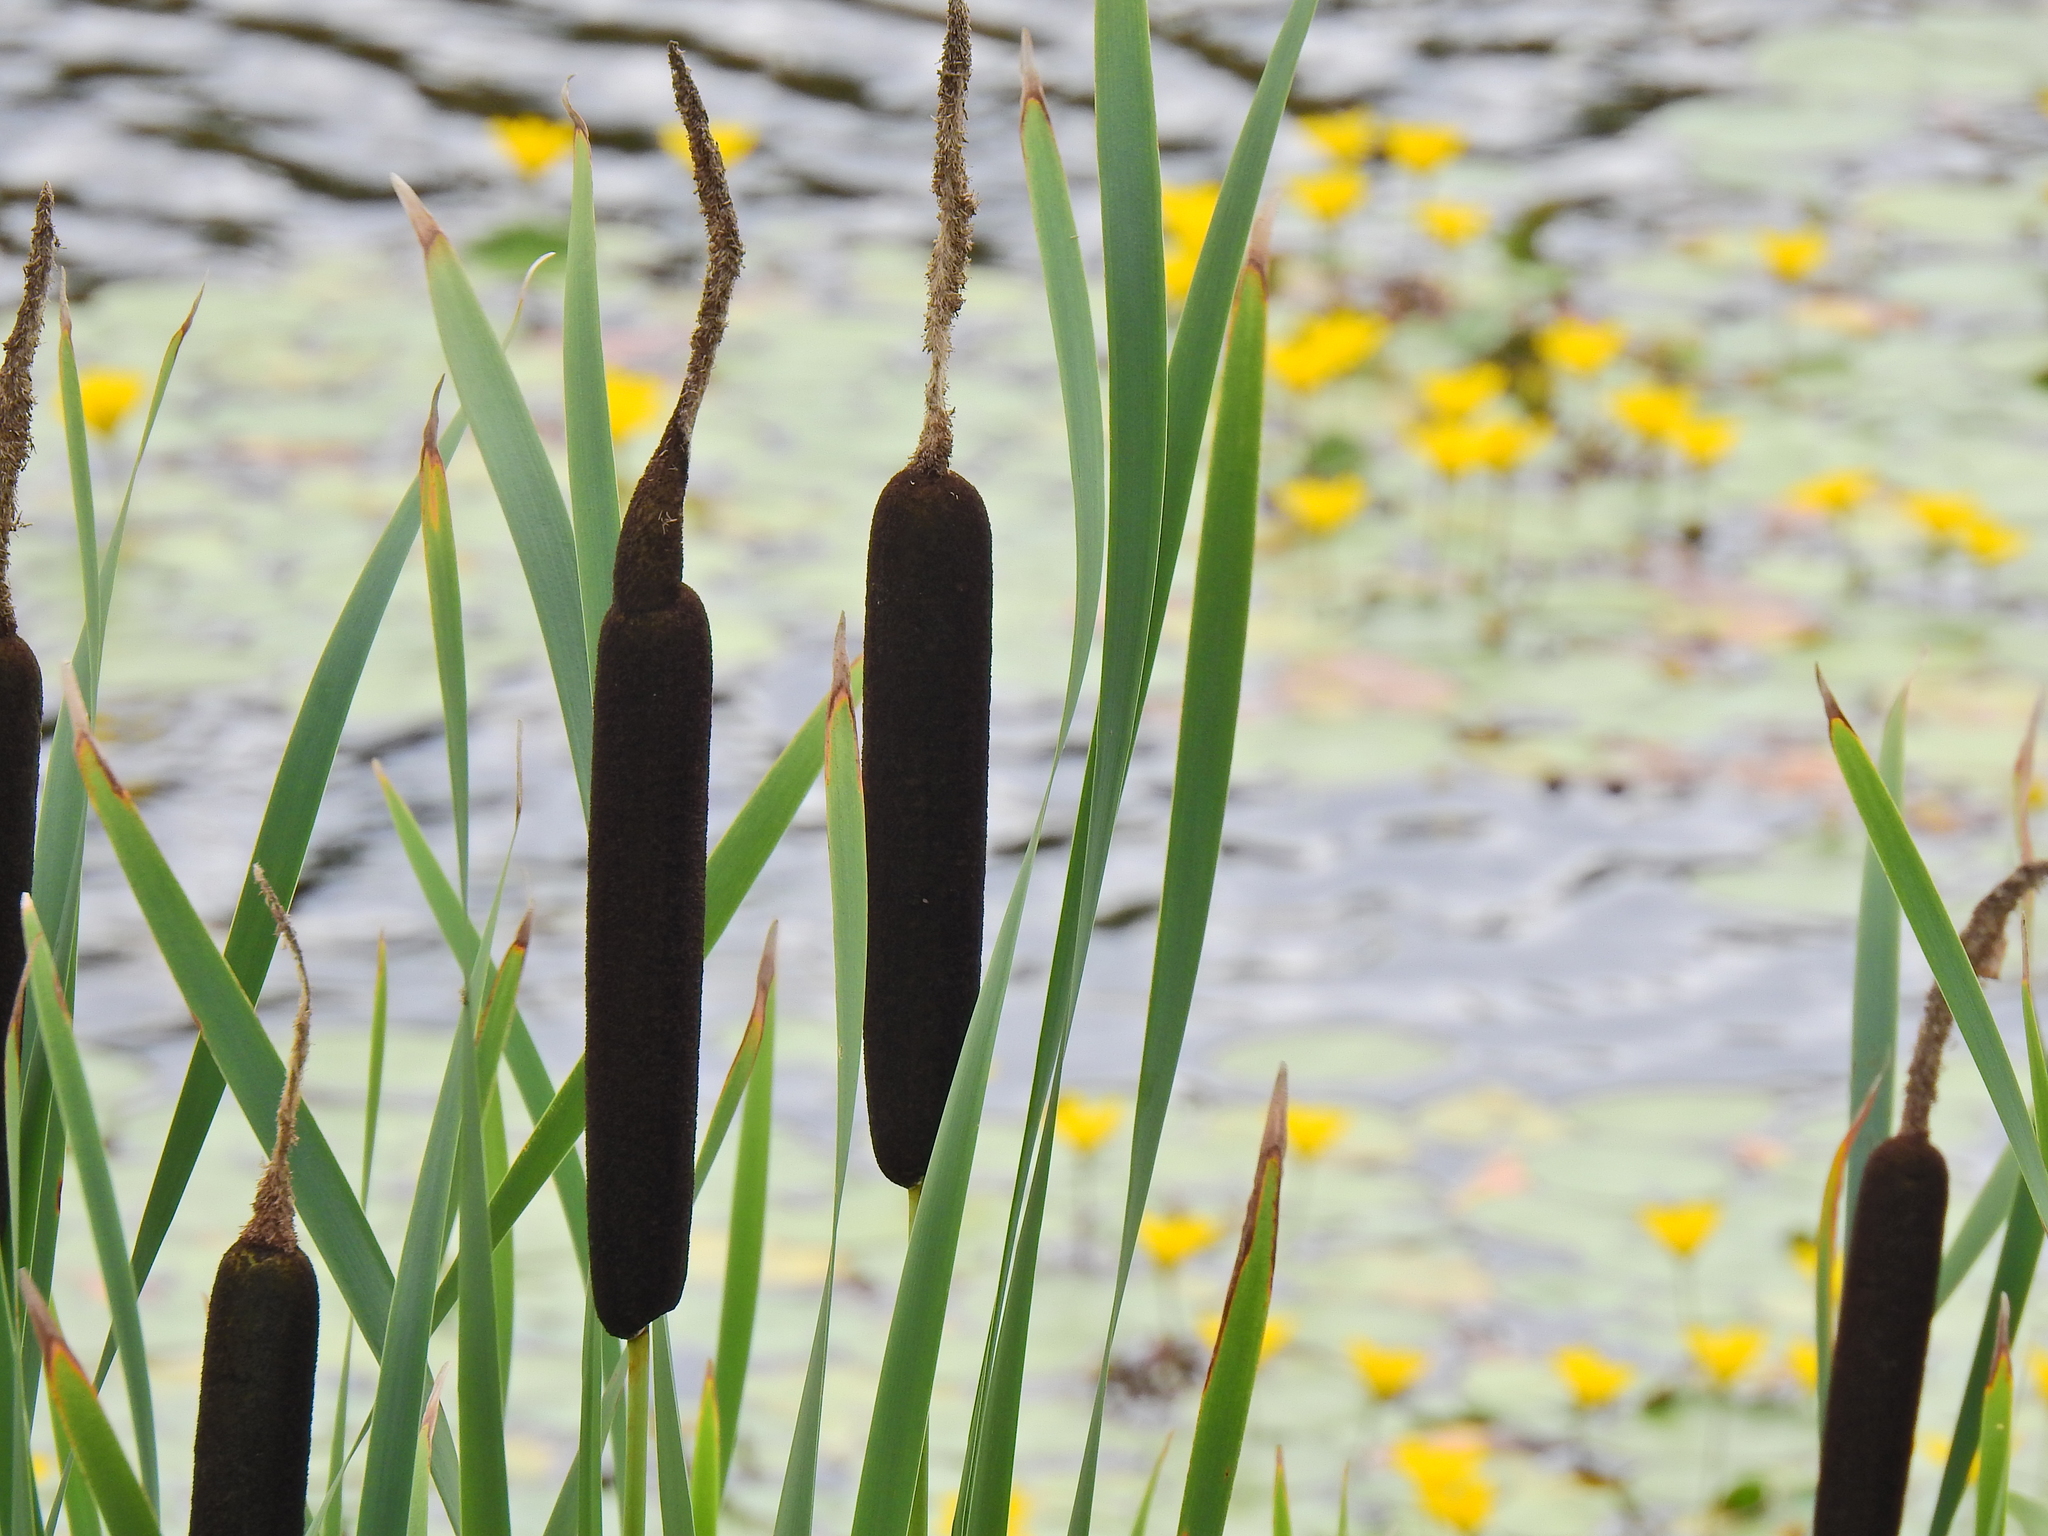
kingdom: Plantae
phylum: Tracheophyta
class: Liliopsida
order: Poales
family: Typhaceae
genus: Typha
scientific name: Typha latifolia
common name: Broadleaf cattail
